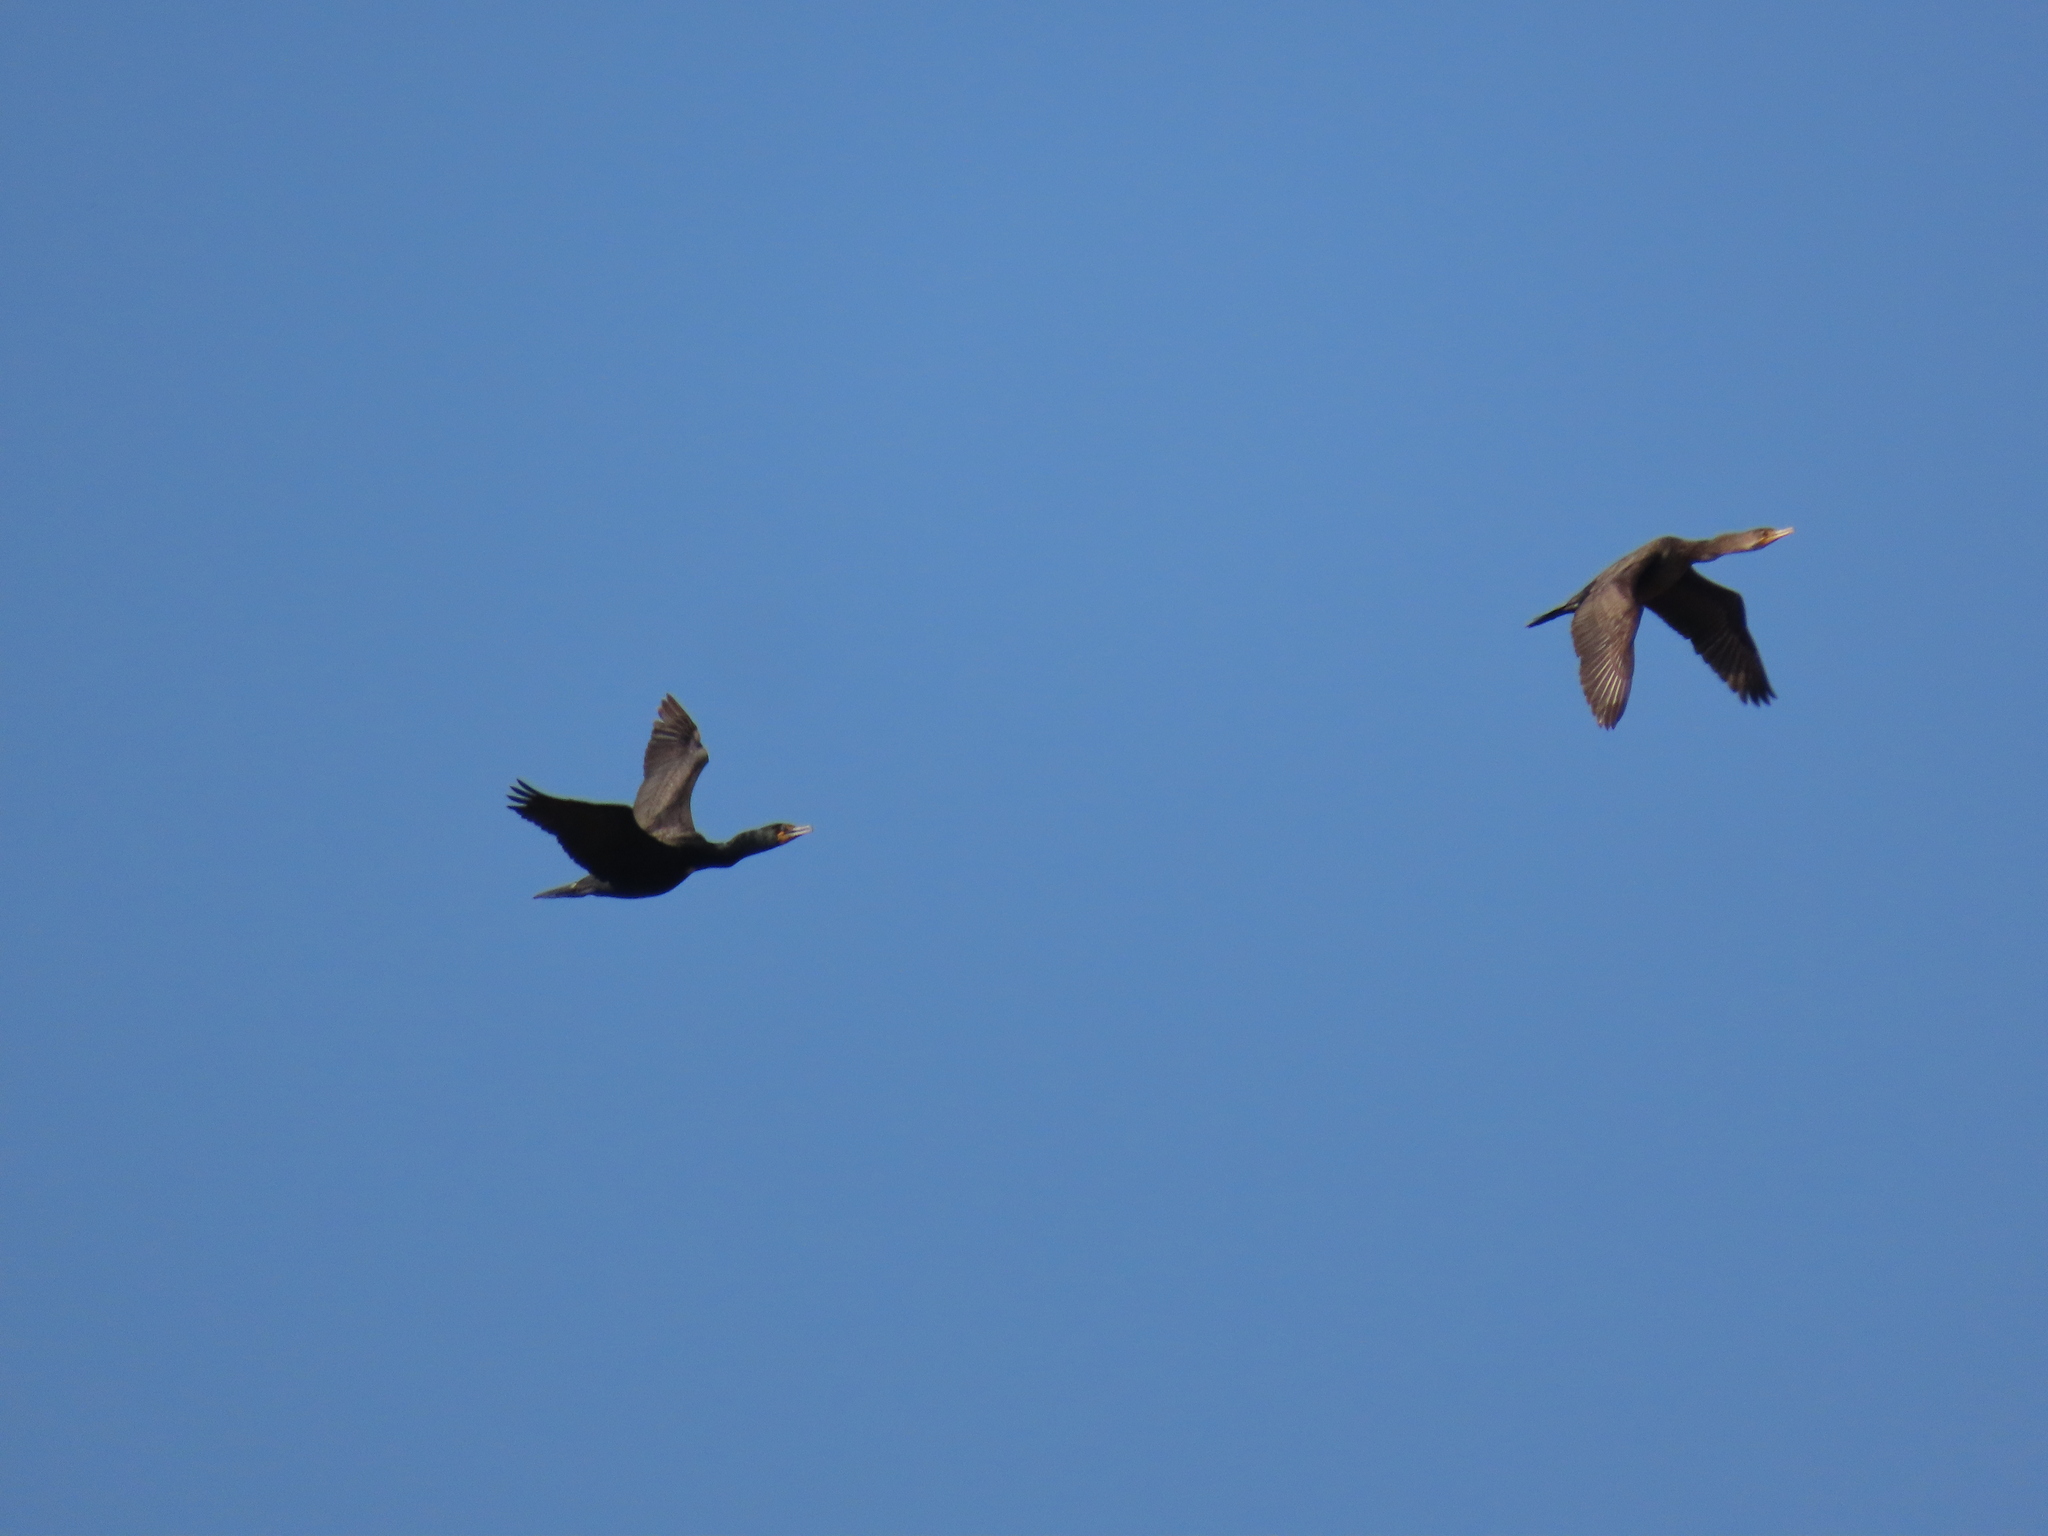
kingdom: Animalia
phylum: Chordata
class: Aves
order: Suliformes
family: Phalacrocoracidae
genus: Phalacrocorax
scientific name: Phalacrocorax auritus
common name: Double-crested cormorant
